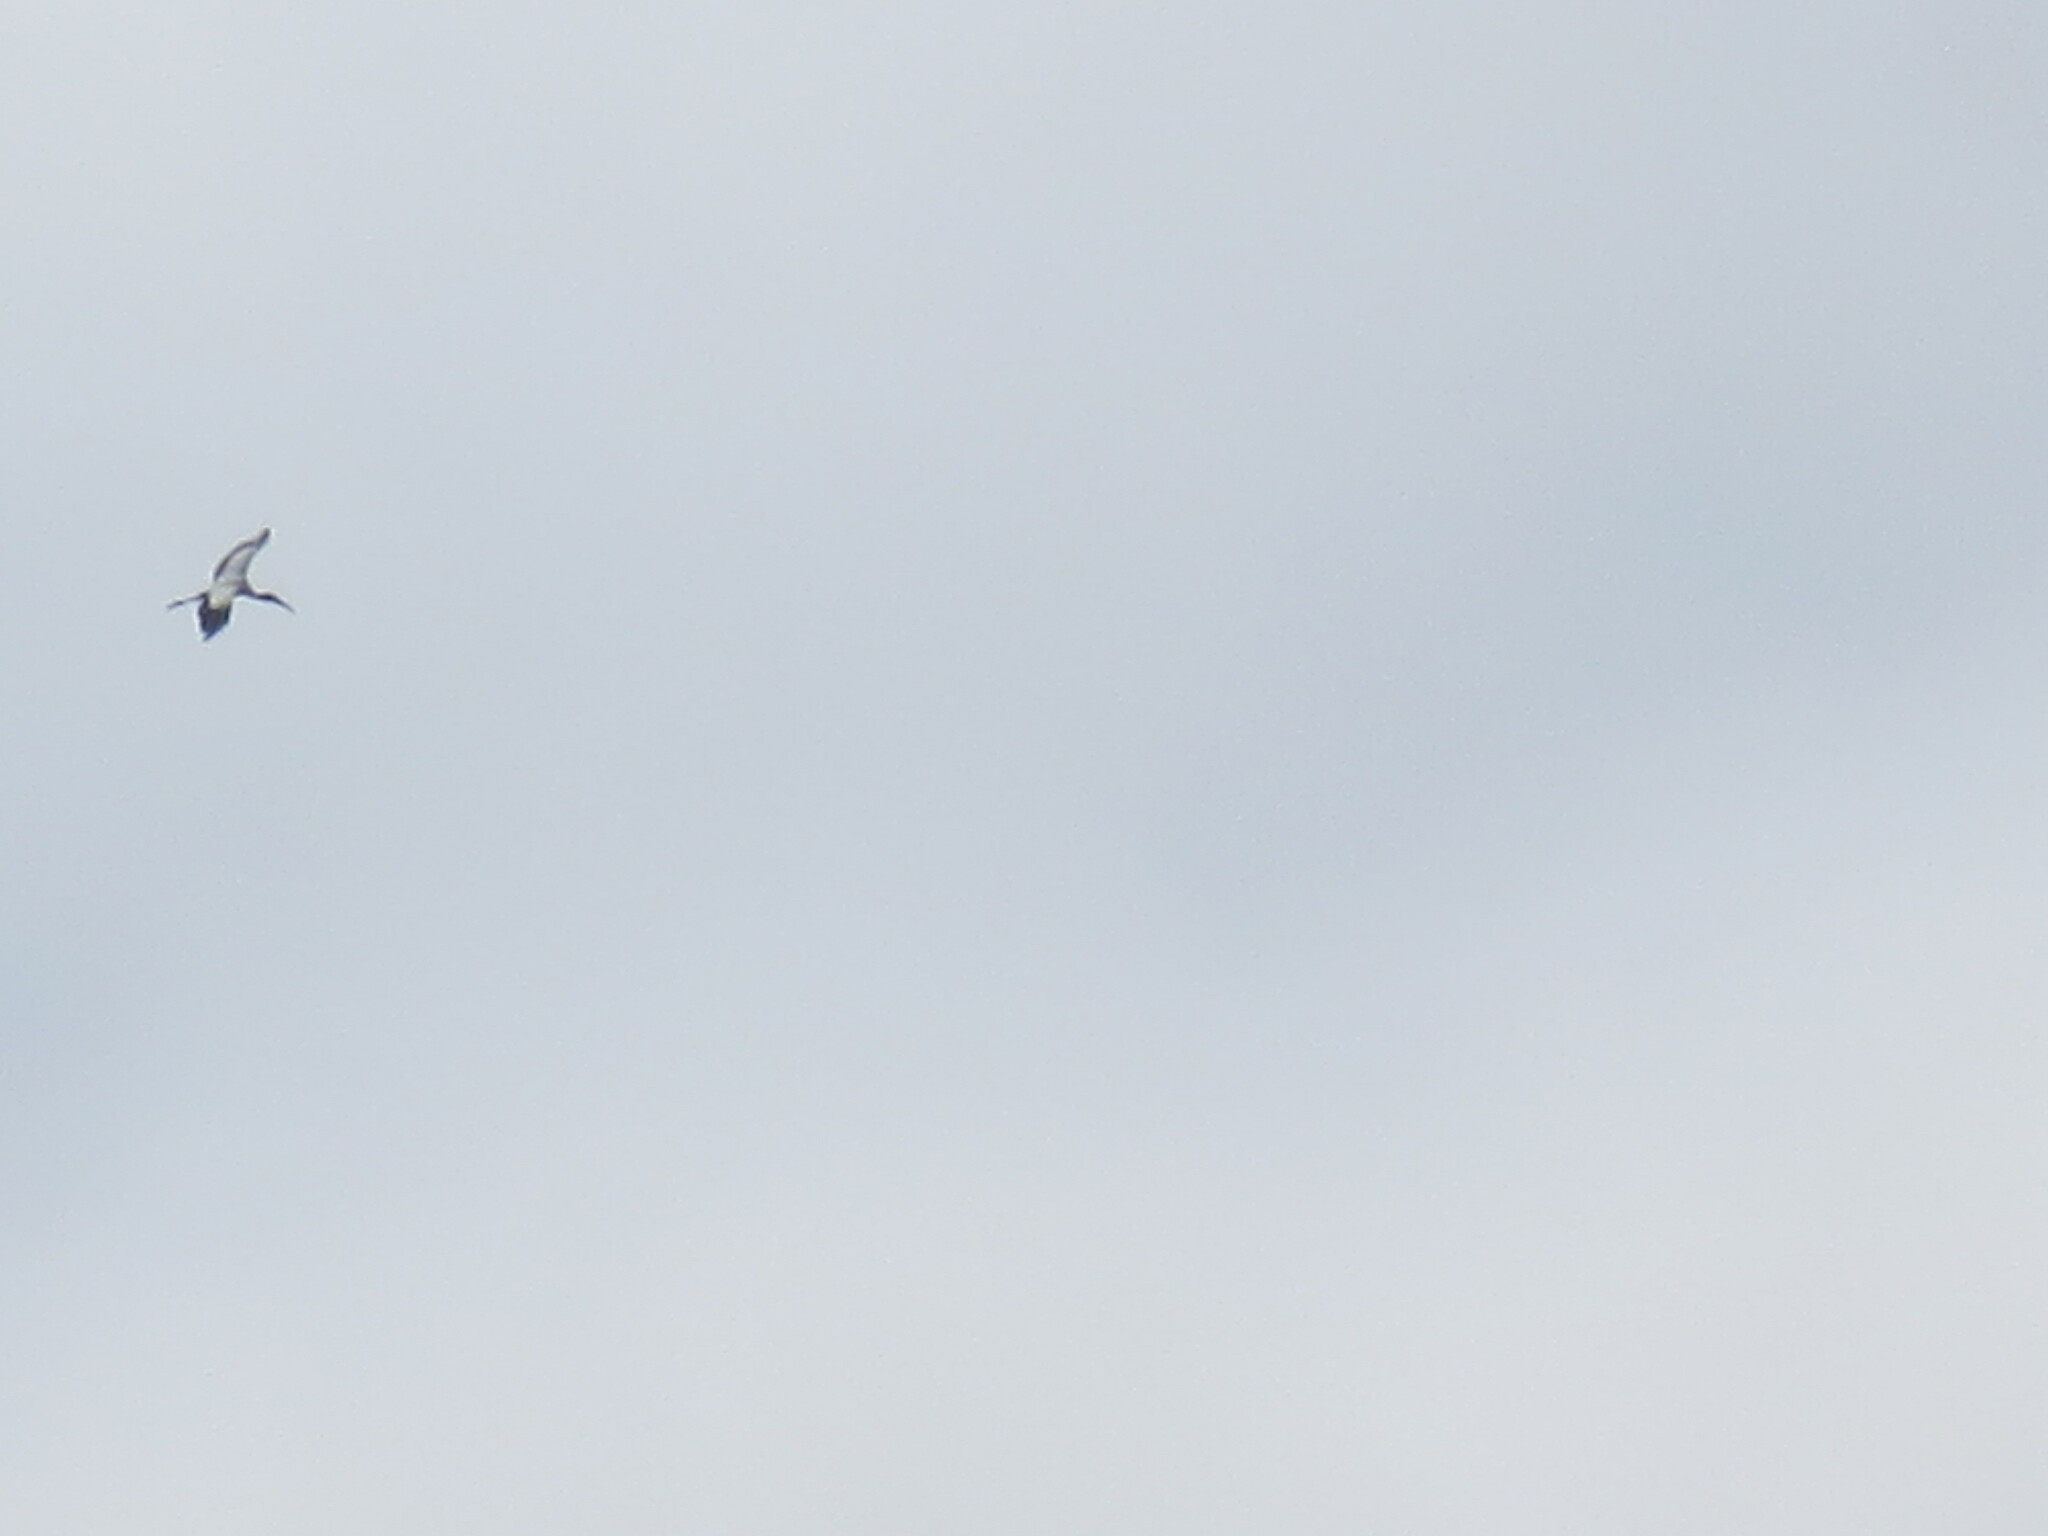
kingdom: Animalia
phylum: Chordata
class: Aves
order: Ciconiiformes
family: Ciconiidae
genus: Mycteria
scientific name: Mycteria americana
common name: Wood stork
